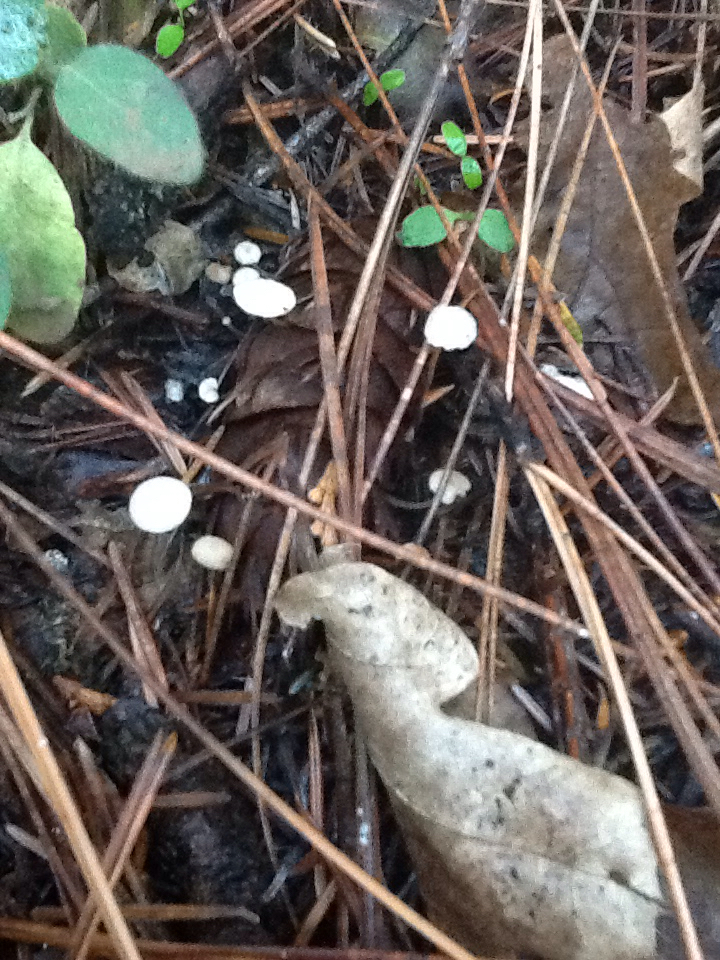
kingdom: Fungi
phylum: Basidiomycota
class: Agaricomycetes
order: Agaricales
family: Physalacriaceae
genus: Strobilurus
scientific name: Strobilurus trullisatus
